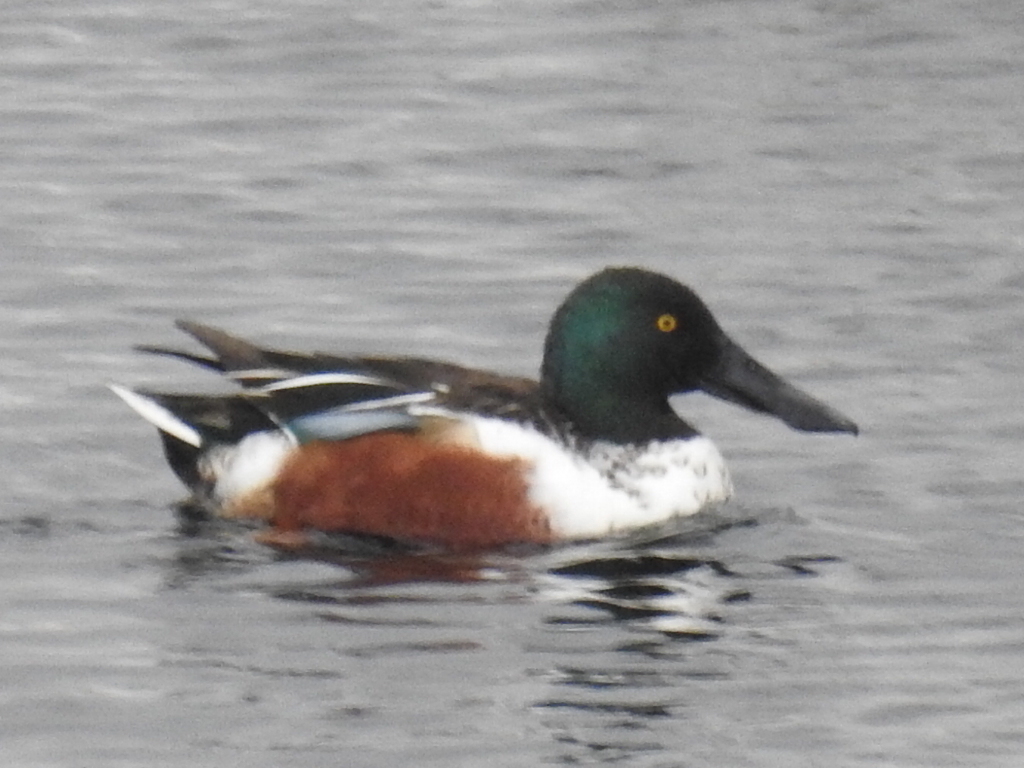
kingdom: Animalia
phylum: Chordata
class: Aves
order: Anseriformes
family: Anatidae
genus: Spatula
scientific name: Spatula clypeata
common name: Northern shoveler
